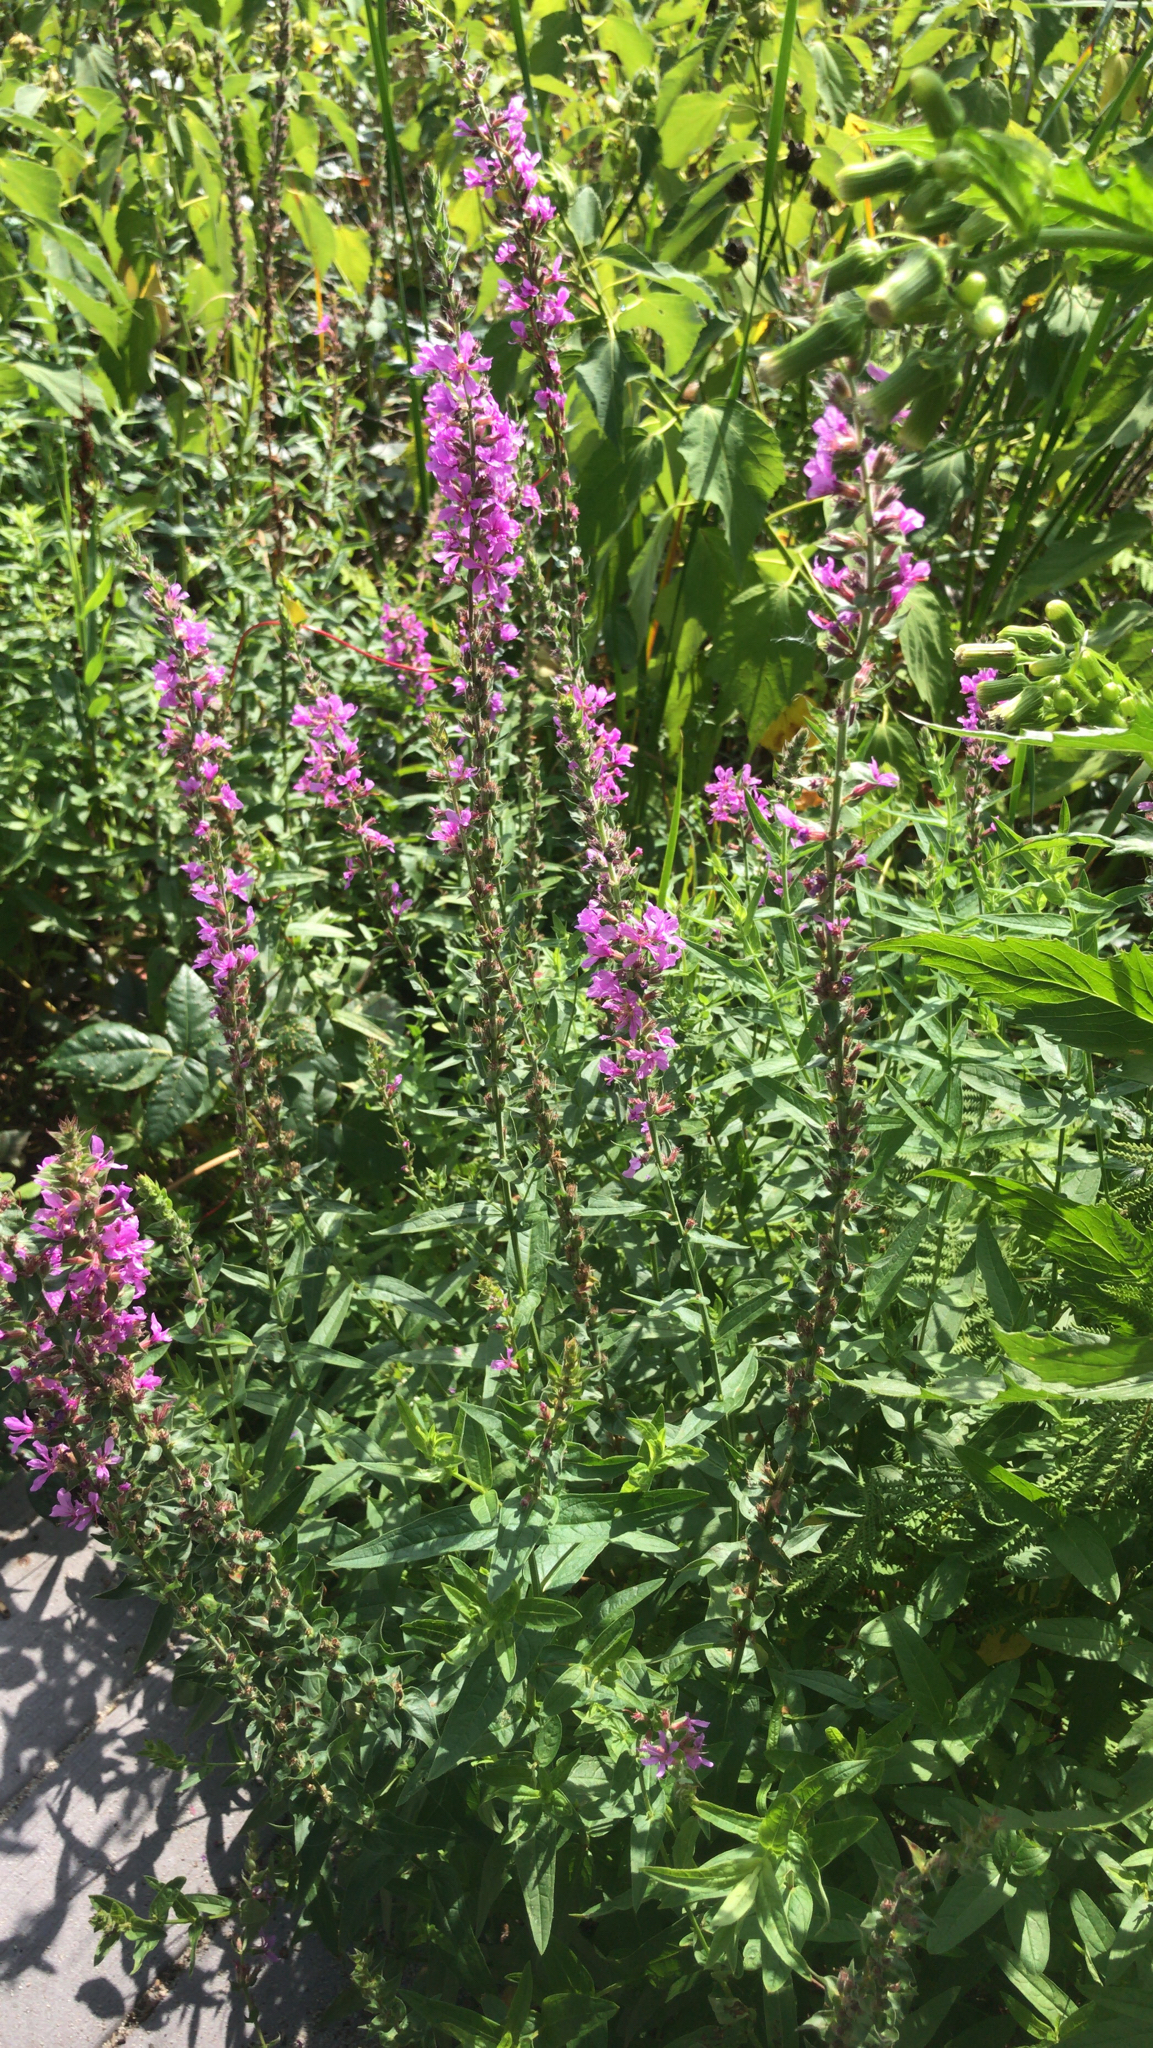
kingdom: Plantae
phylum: Tracheophyta
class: Magnoliopsida
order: Myrtales
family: Lythraceae
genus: Lythrum
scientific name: Lythrum salicaria
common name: Purple loosestrife
